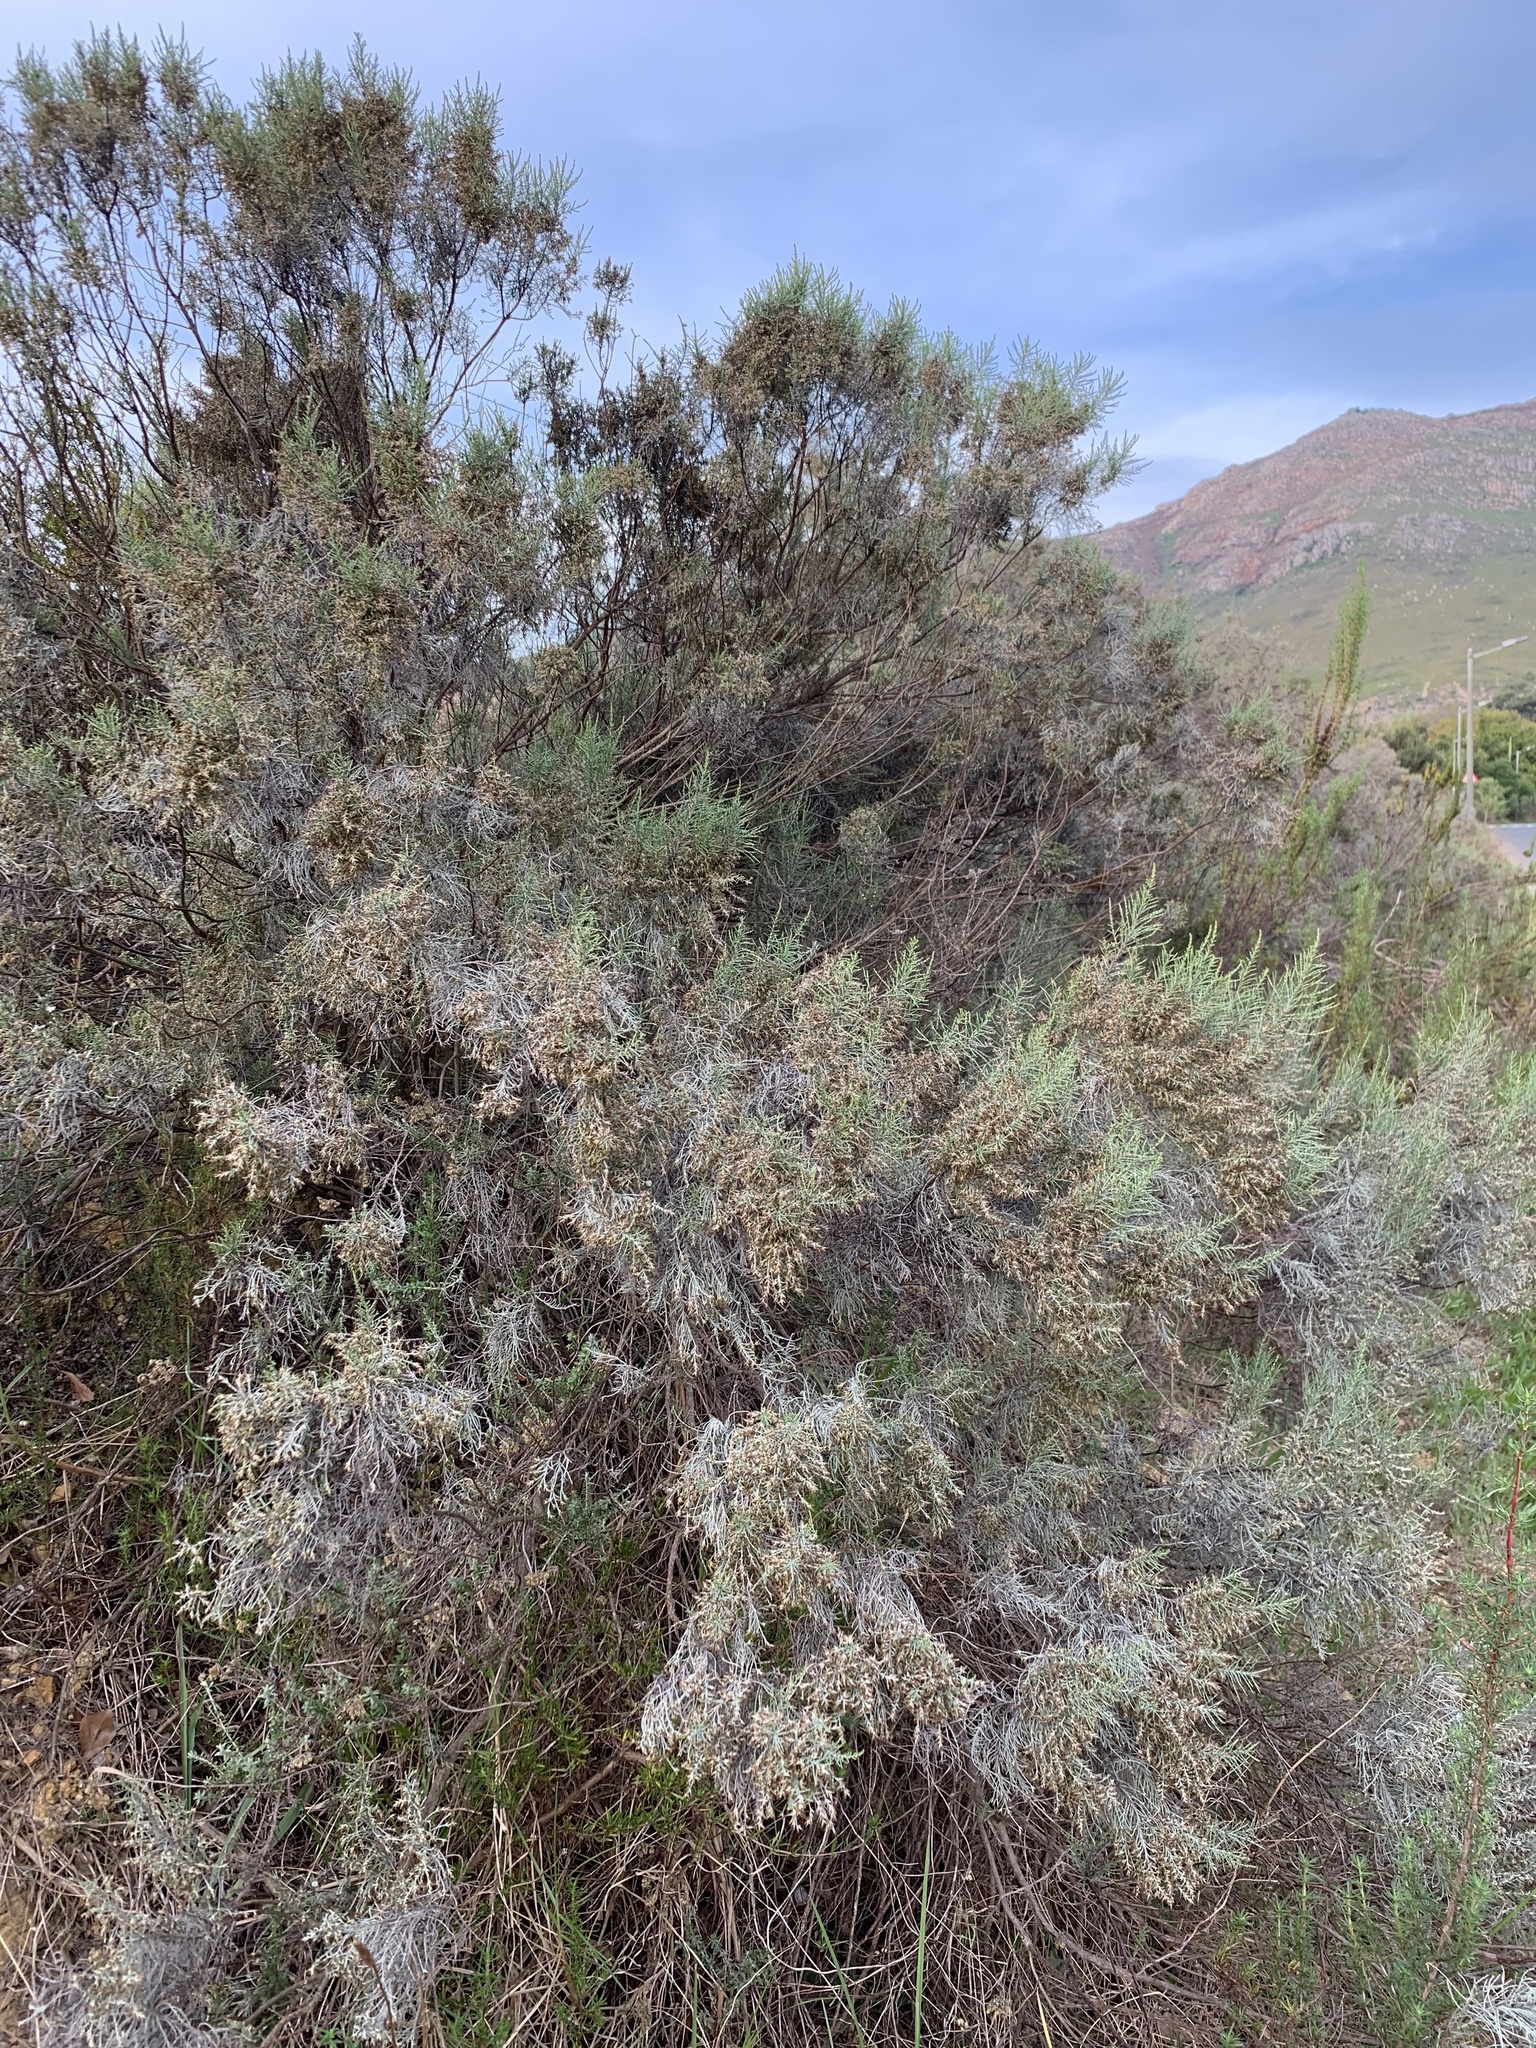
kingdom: Plantae
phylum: Tracheophyta
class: Magnoliopsida
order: Asterales
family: Asteraceae
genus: Dicerothamnus
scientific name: Dicerothamnus rhinocerotis
